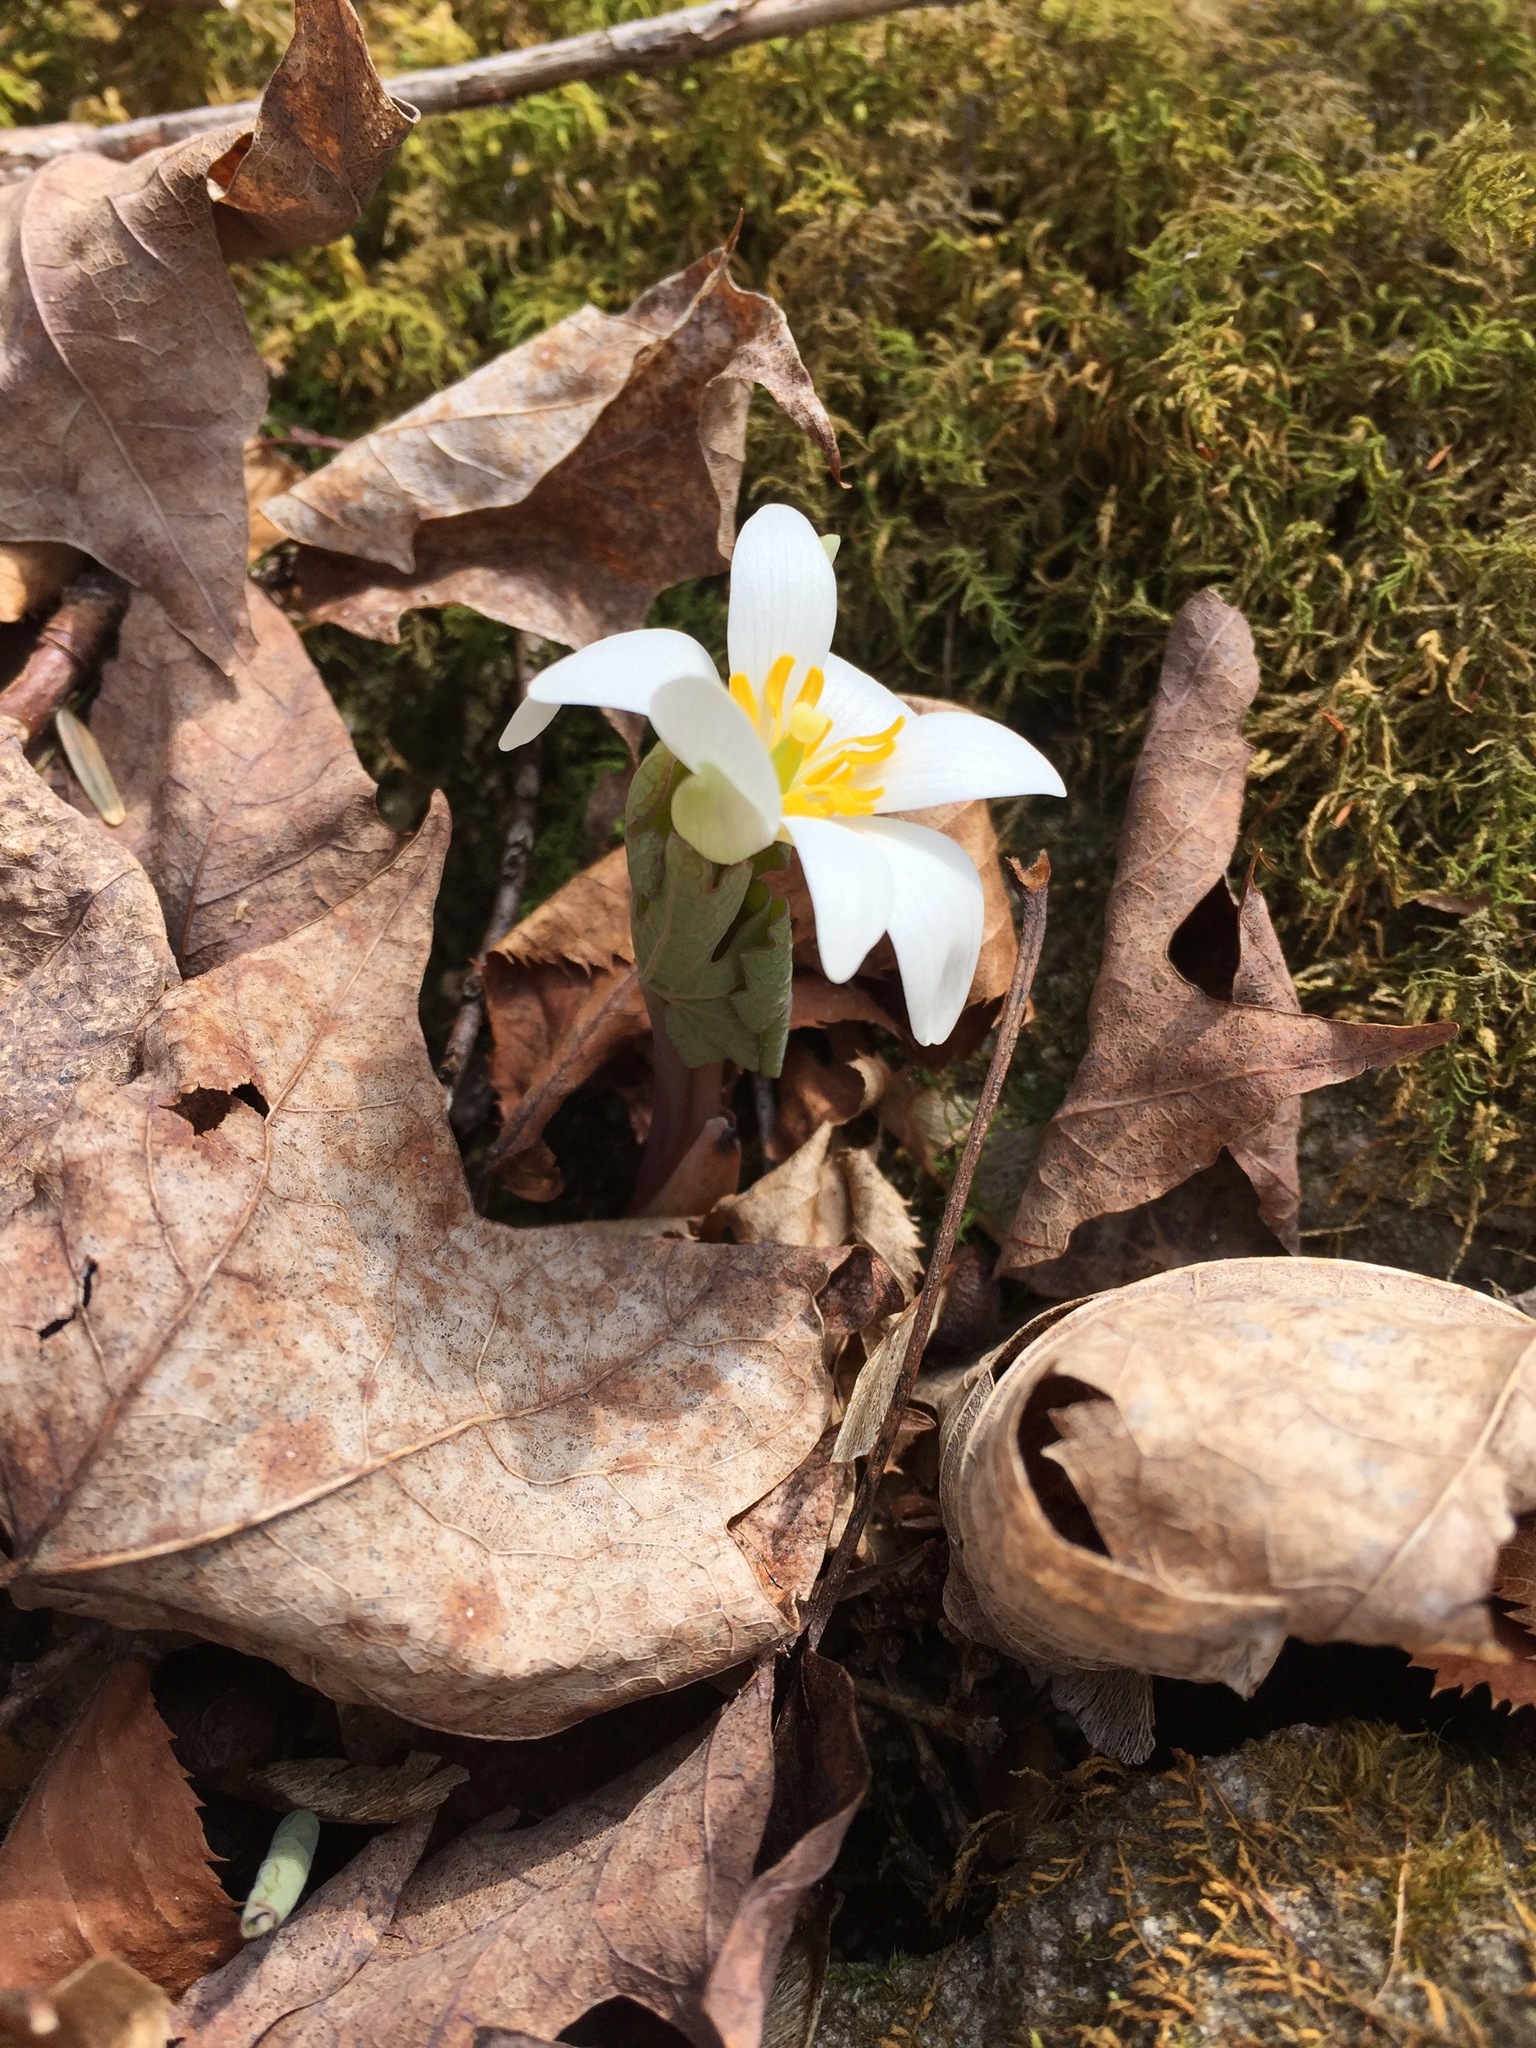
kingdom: Plantae
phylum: Tracheophyta
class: Magnoliopsida
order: Ranunculales
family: Papaveraceae
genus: Sanguinaria
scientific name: Sanguinaria canadensis
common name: Bloodroot
